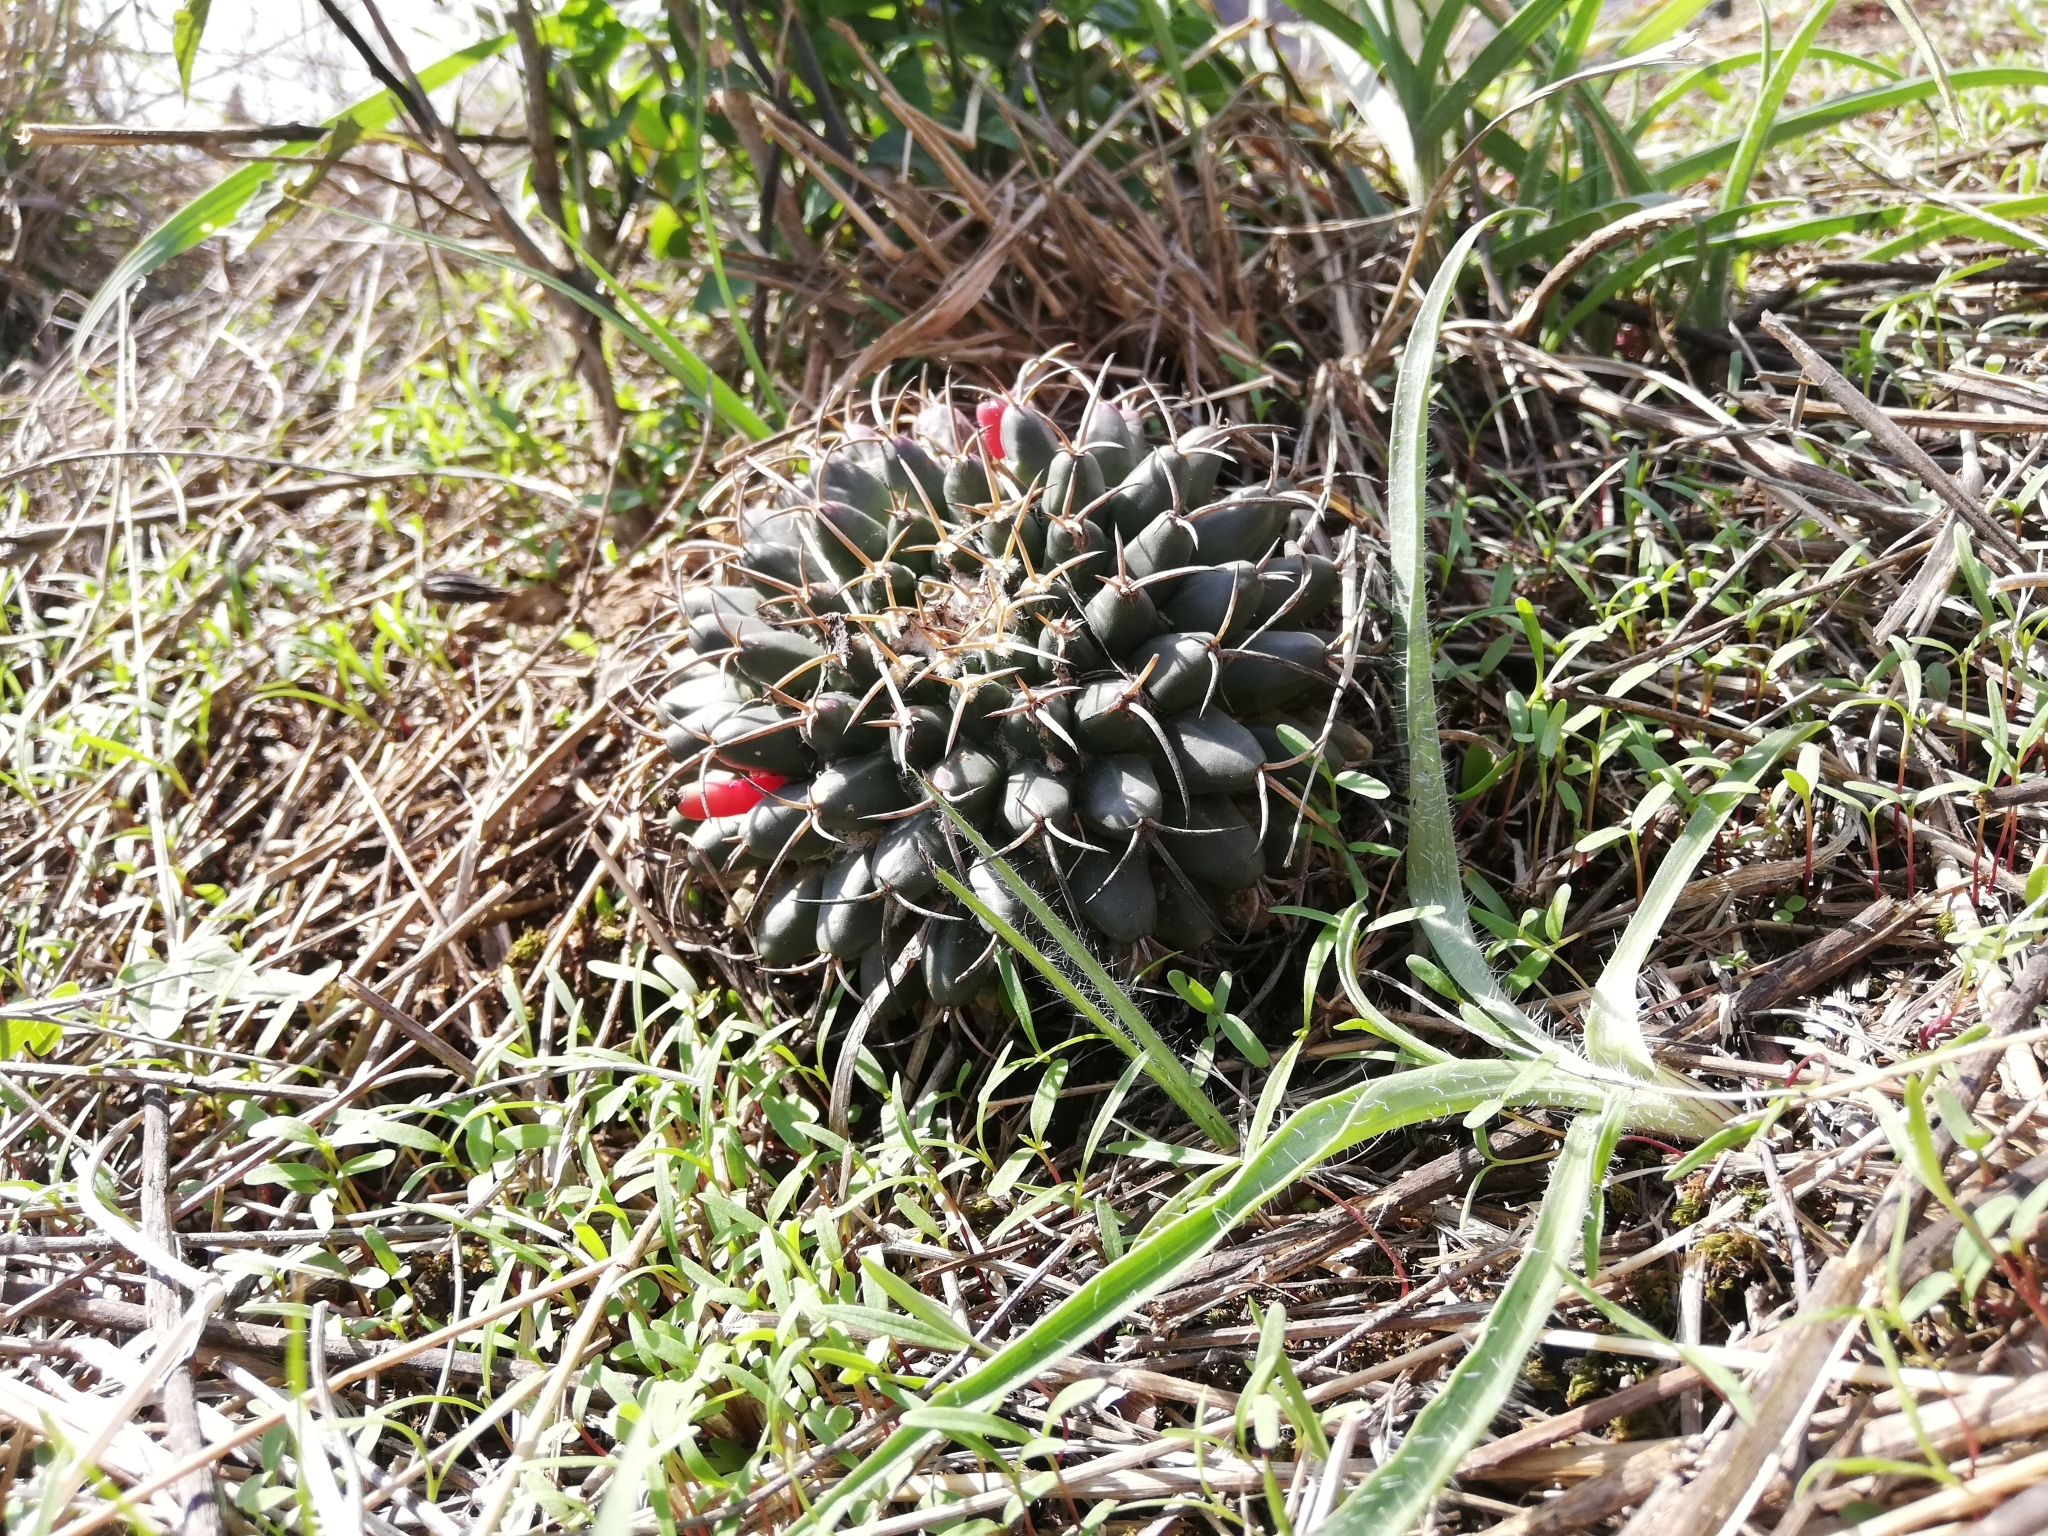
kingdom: Plantae
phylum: Tracheophyta
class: Magnoliopsida
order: Caryophyllales
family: Cactaceae
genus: Mammillaria
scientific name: Mammillaria magnimamma
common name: Mexican pincushion
